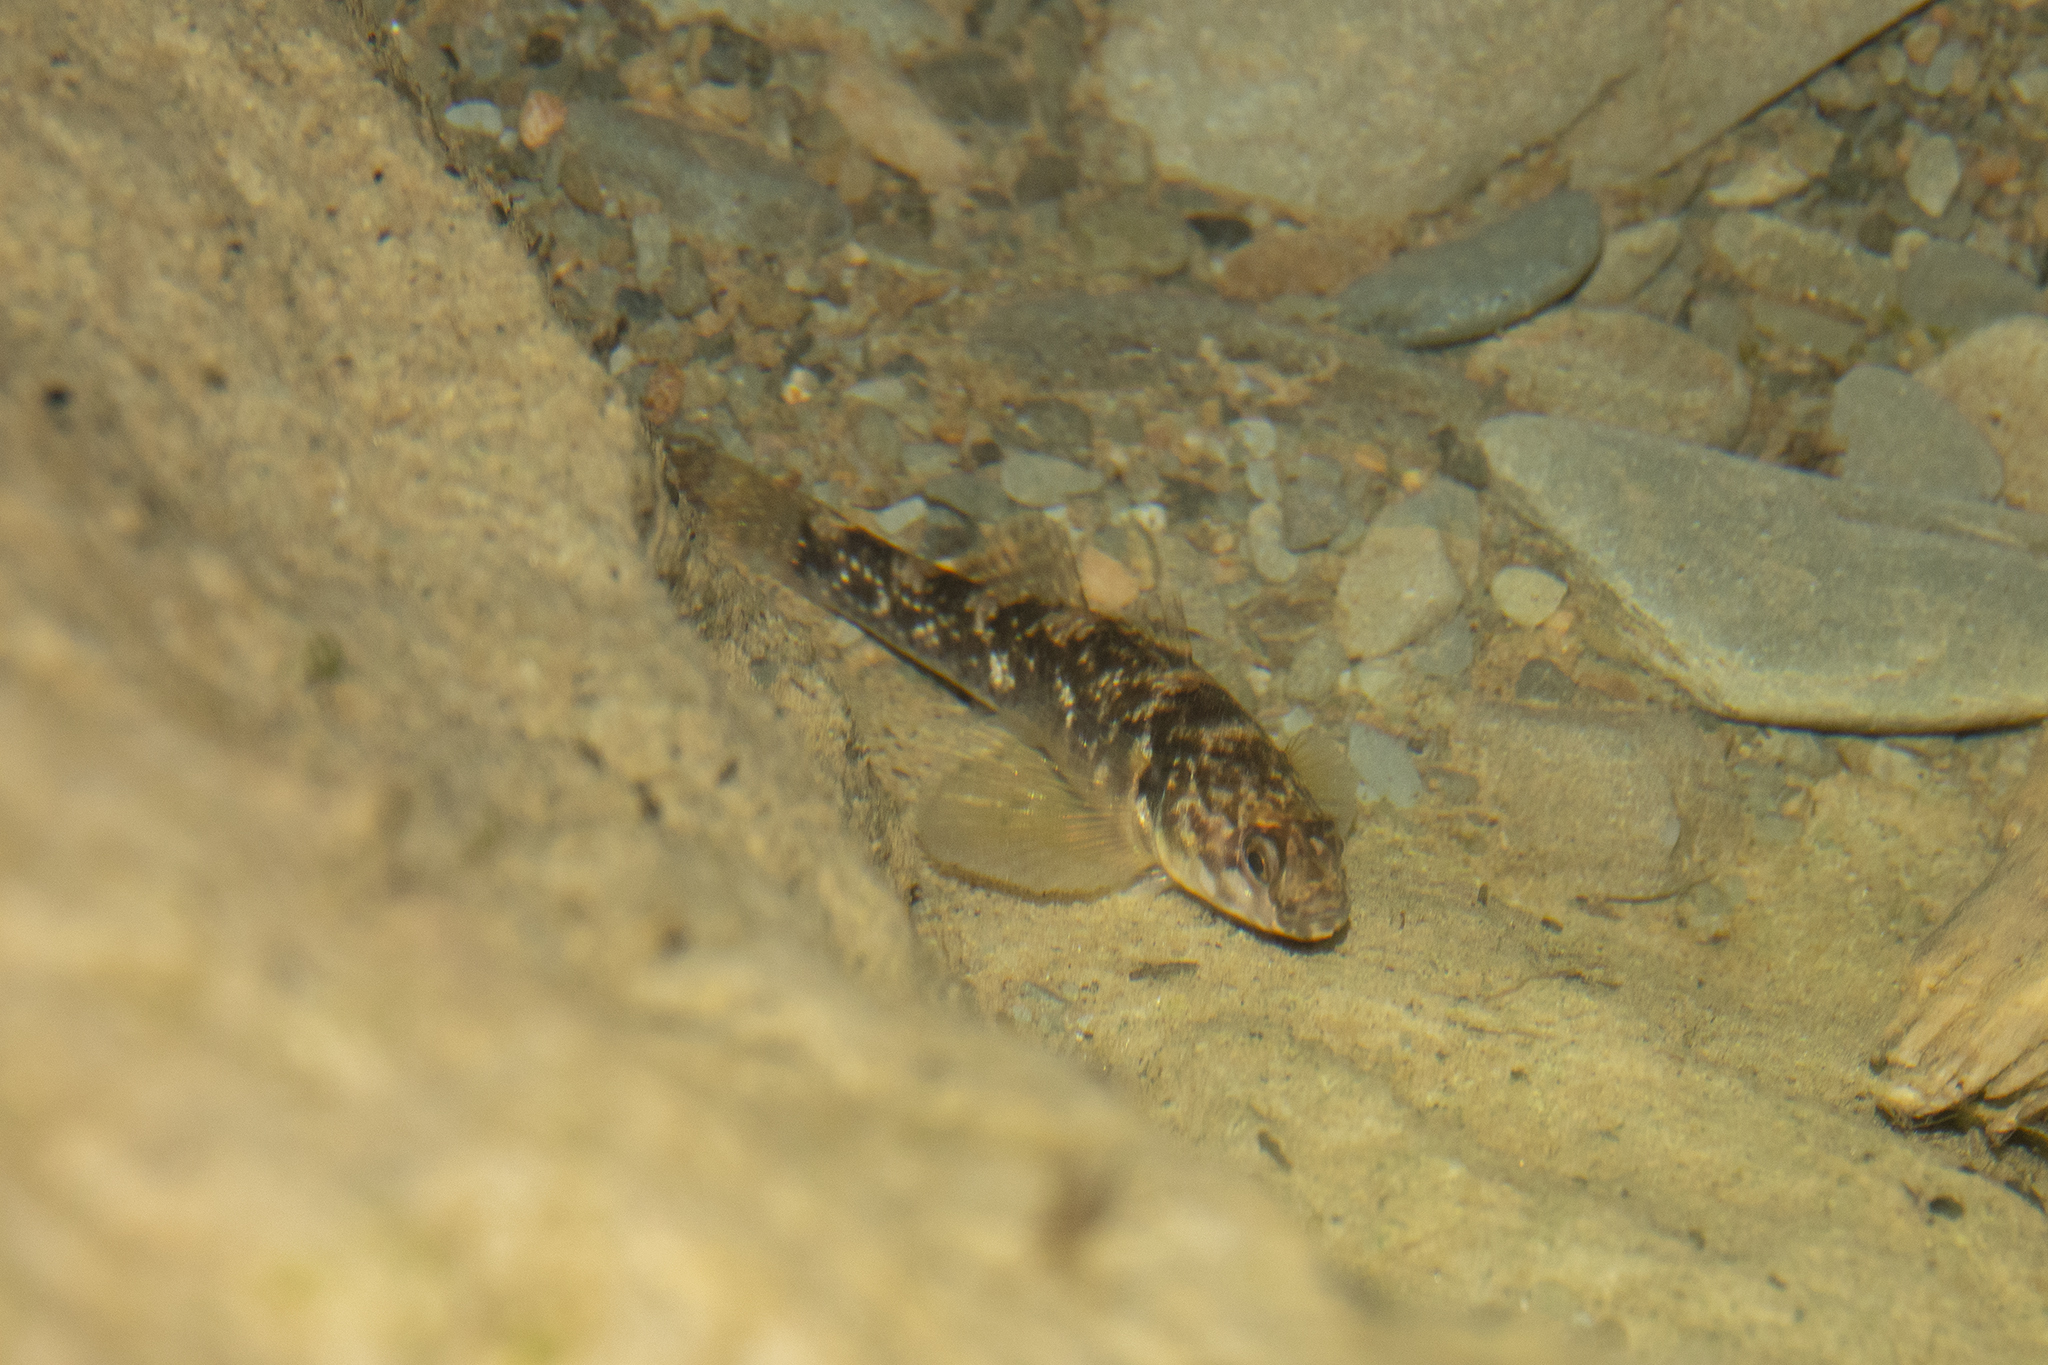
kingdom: Animalia
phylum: Chordata
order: Perciformes
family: Eleotridae
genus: Gobiomorphus
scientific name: Gobiomorphus huttoni
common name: Redfin bully
